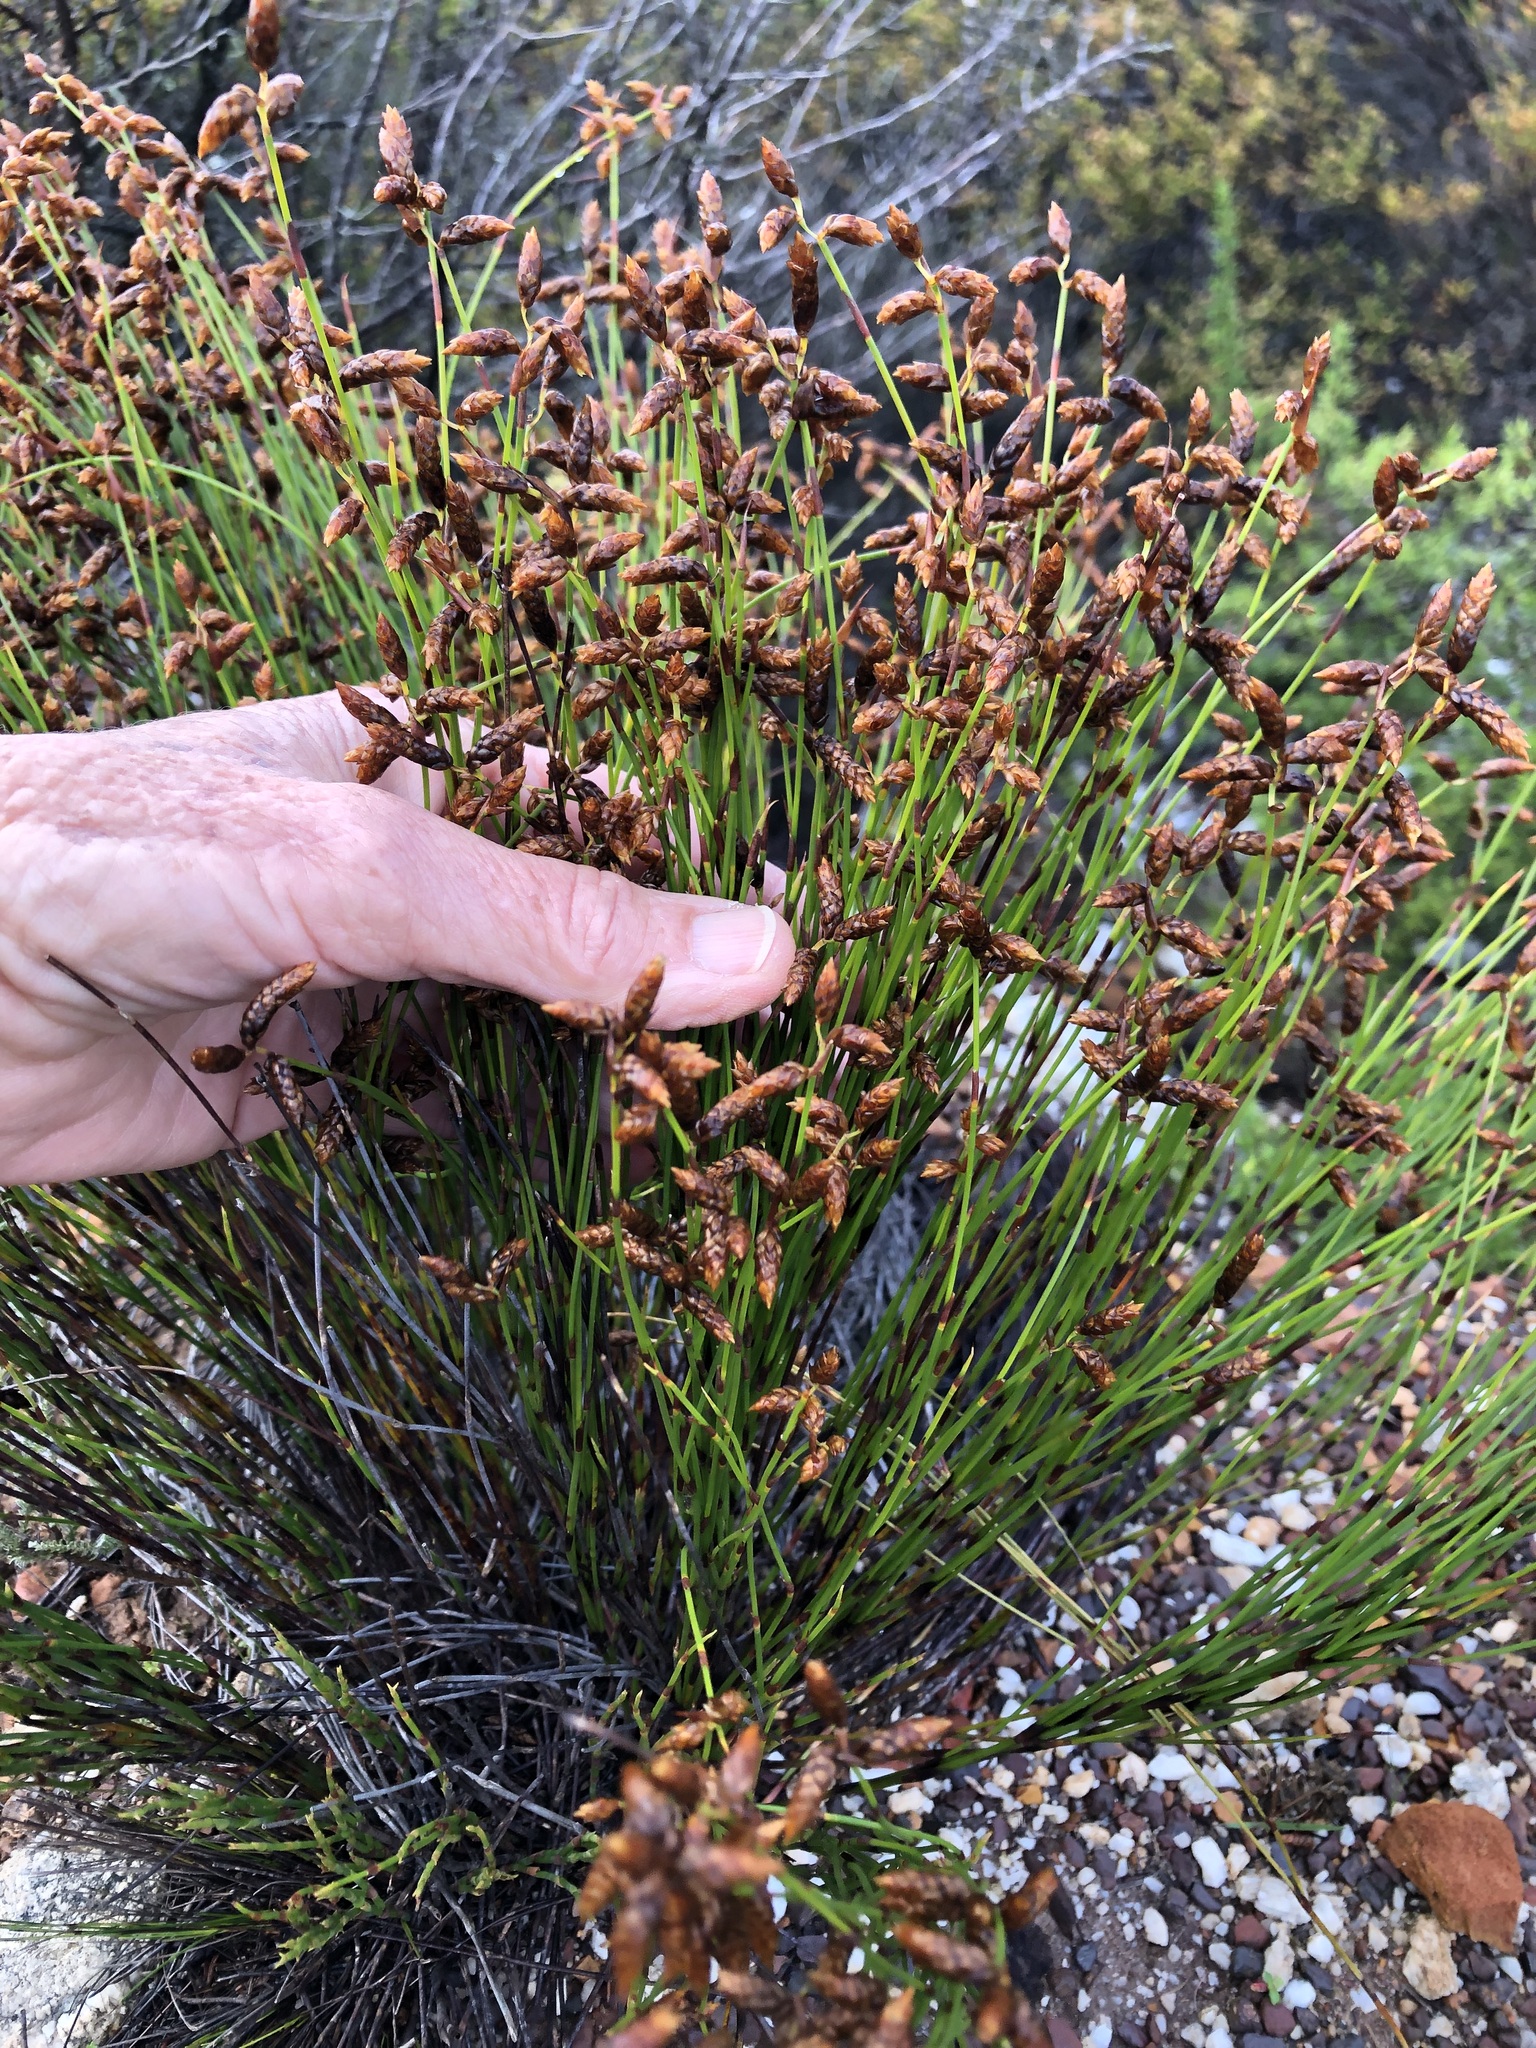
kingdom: Plantae
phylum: Tracheophyta
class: Liliopsida
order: Poales
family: Restionaceae
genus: Mastersiella
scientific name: Mastersiella digitata
